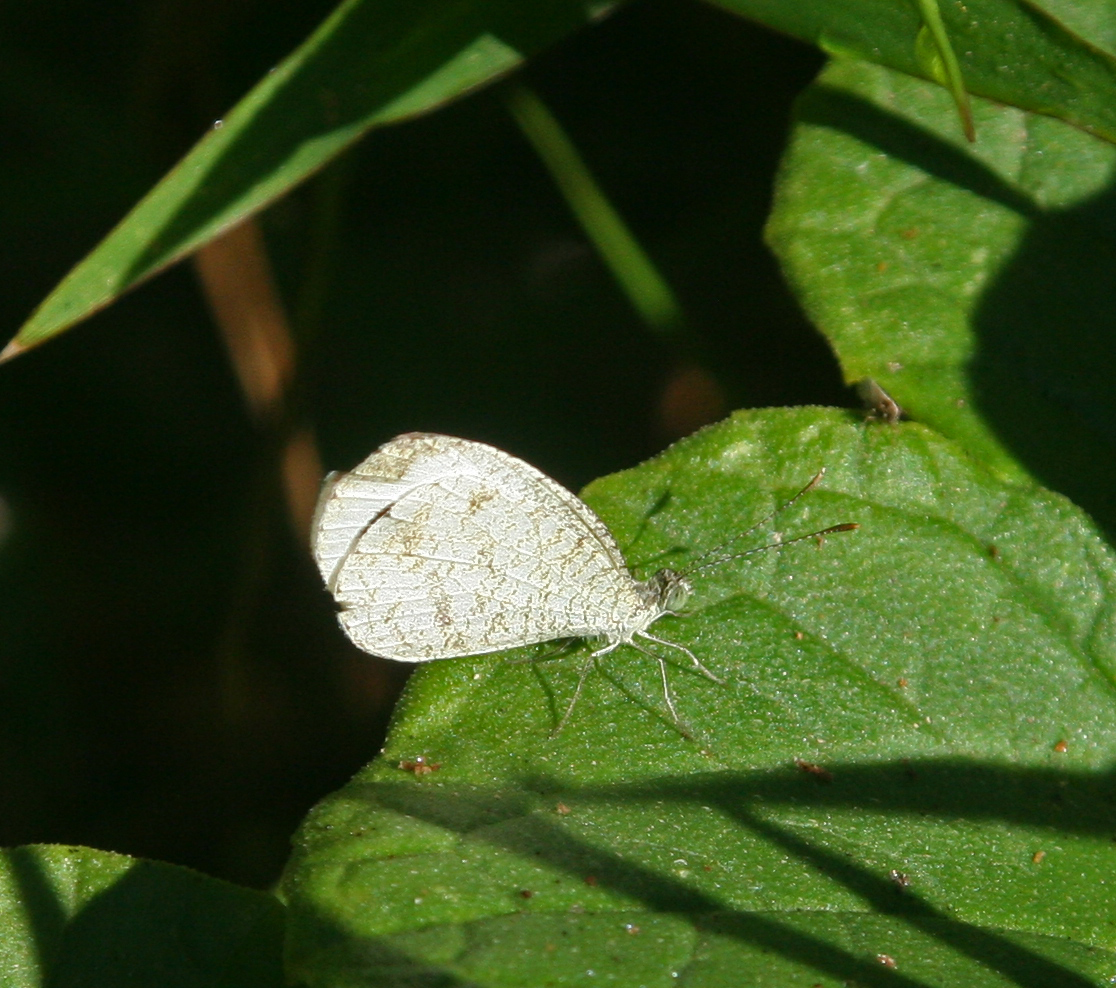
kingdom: Animalia
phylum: Arthropoda
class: Insecta
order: Lepidoptera
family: Pieridae
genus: Leptosia
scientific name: Leptosia nina
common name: Psyche
